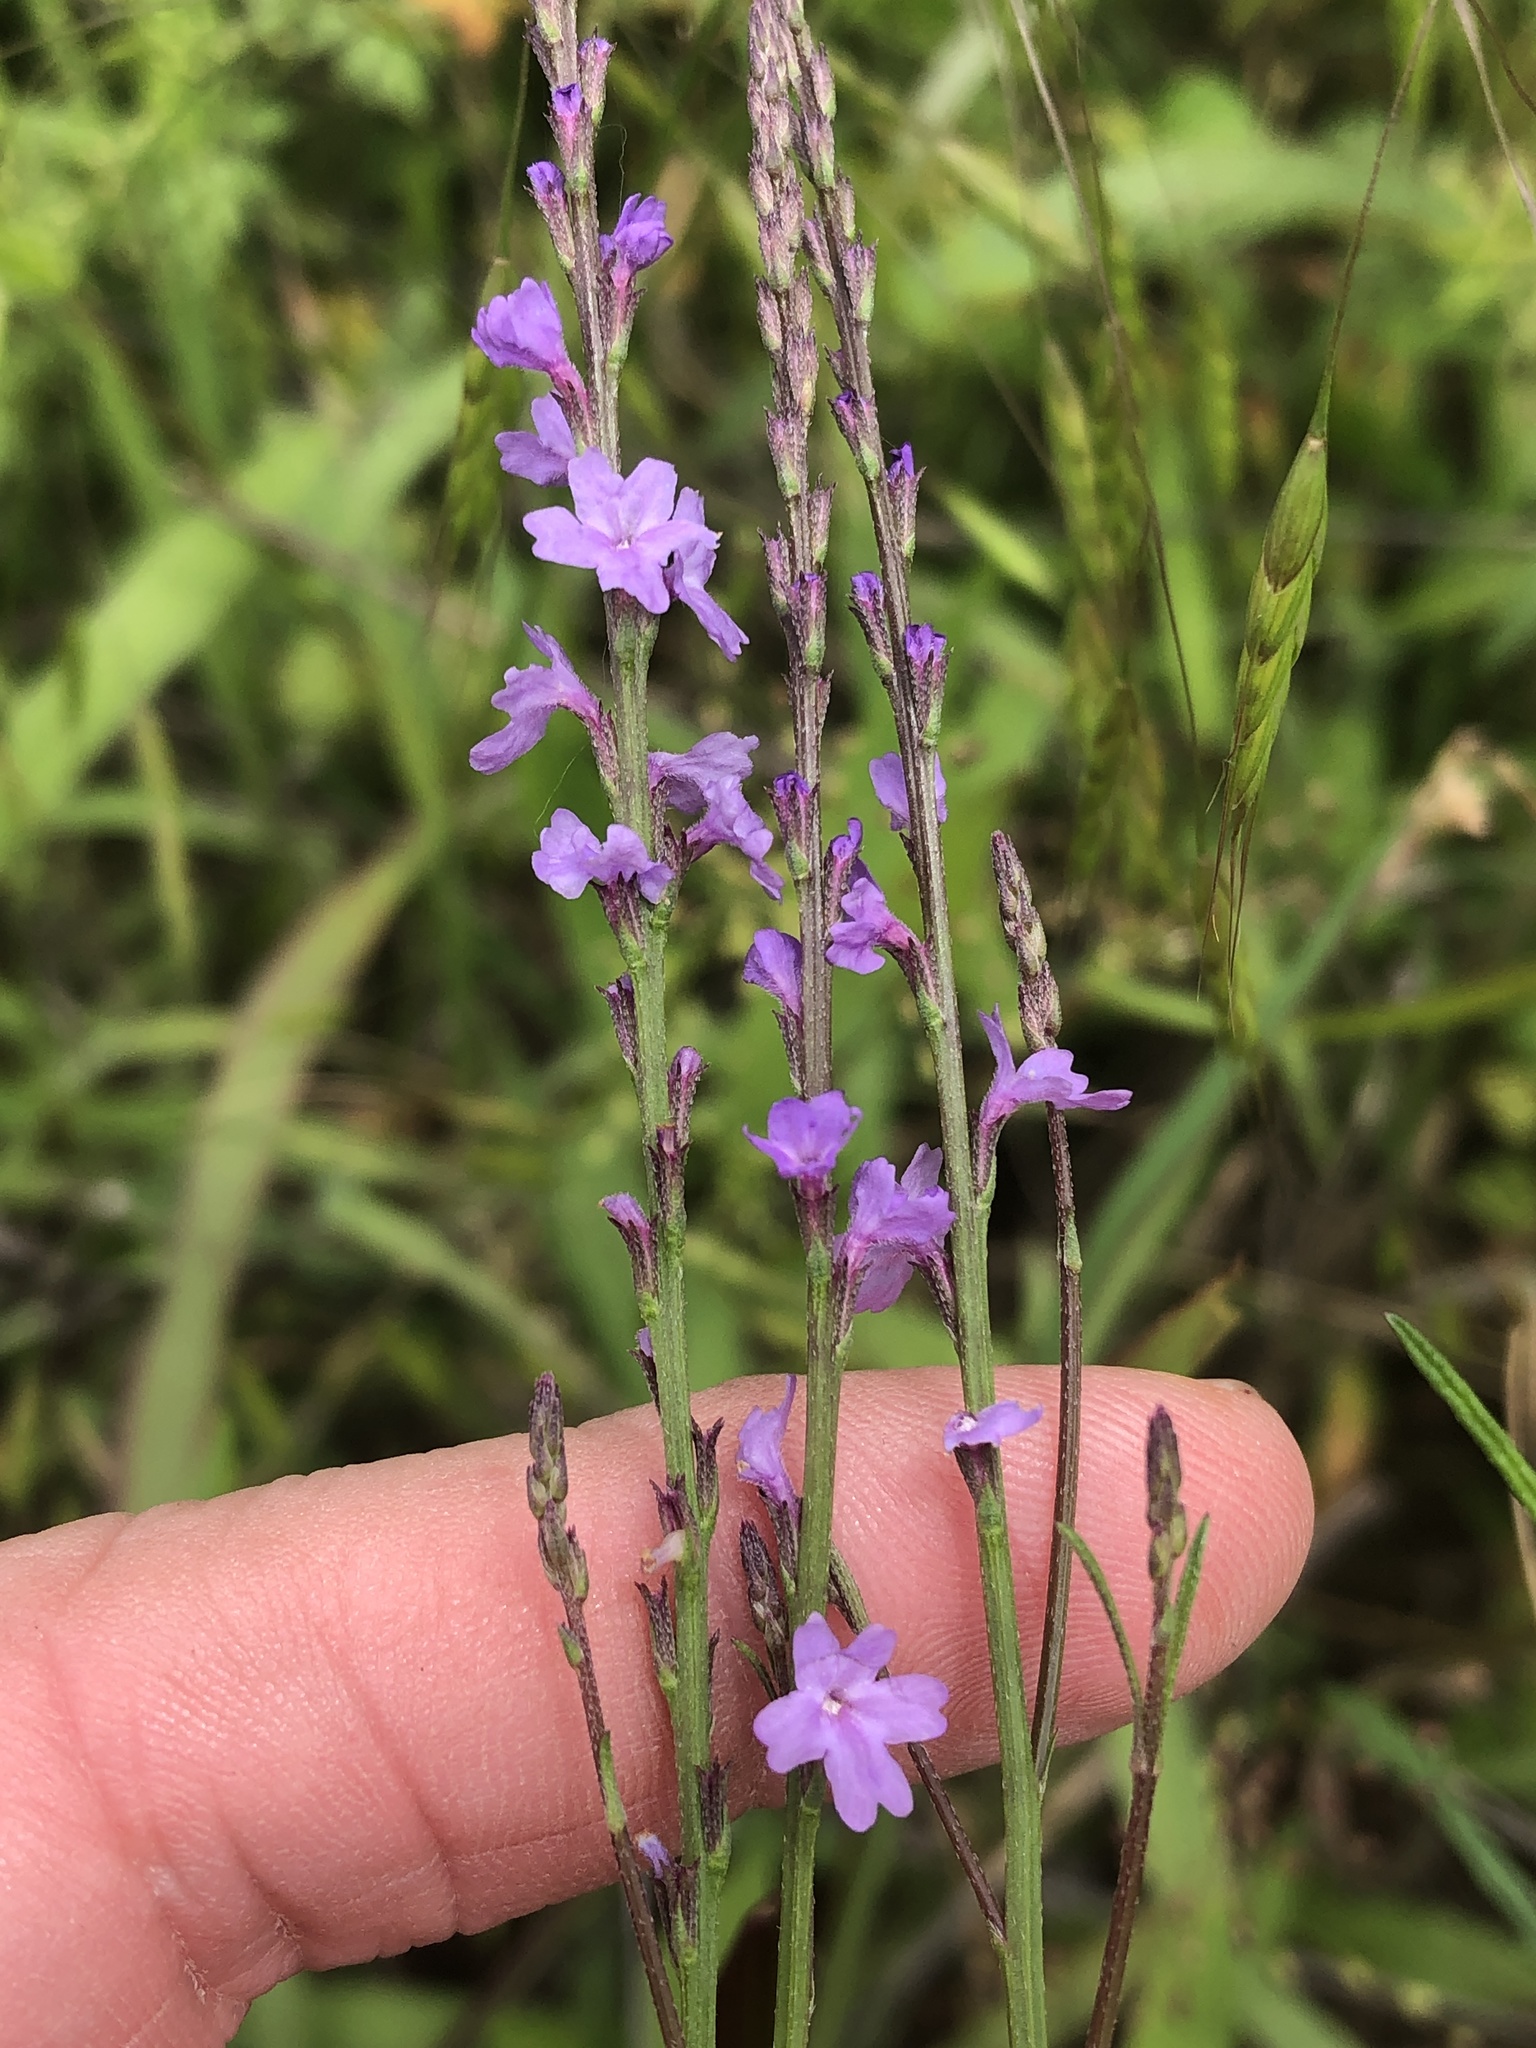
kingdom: Plantae
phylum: Tracheophyta
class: Magnoliopsida
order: Lamiales
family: Verbenaceae
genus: Verbena
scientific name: Verbena halei
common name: Texas vervain
